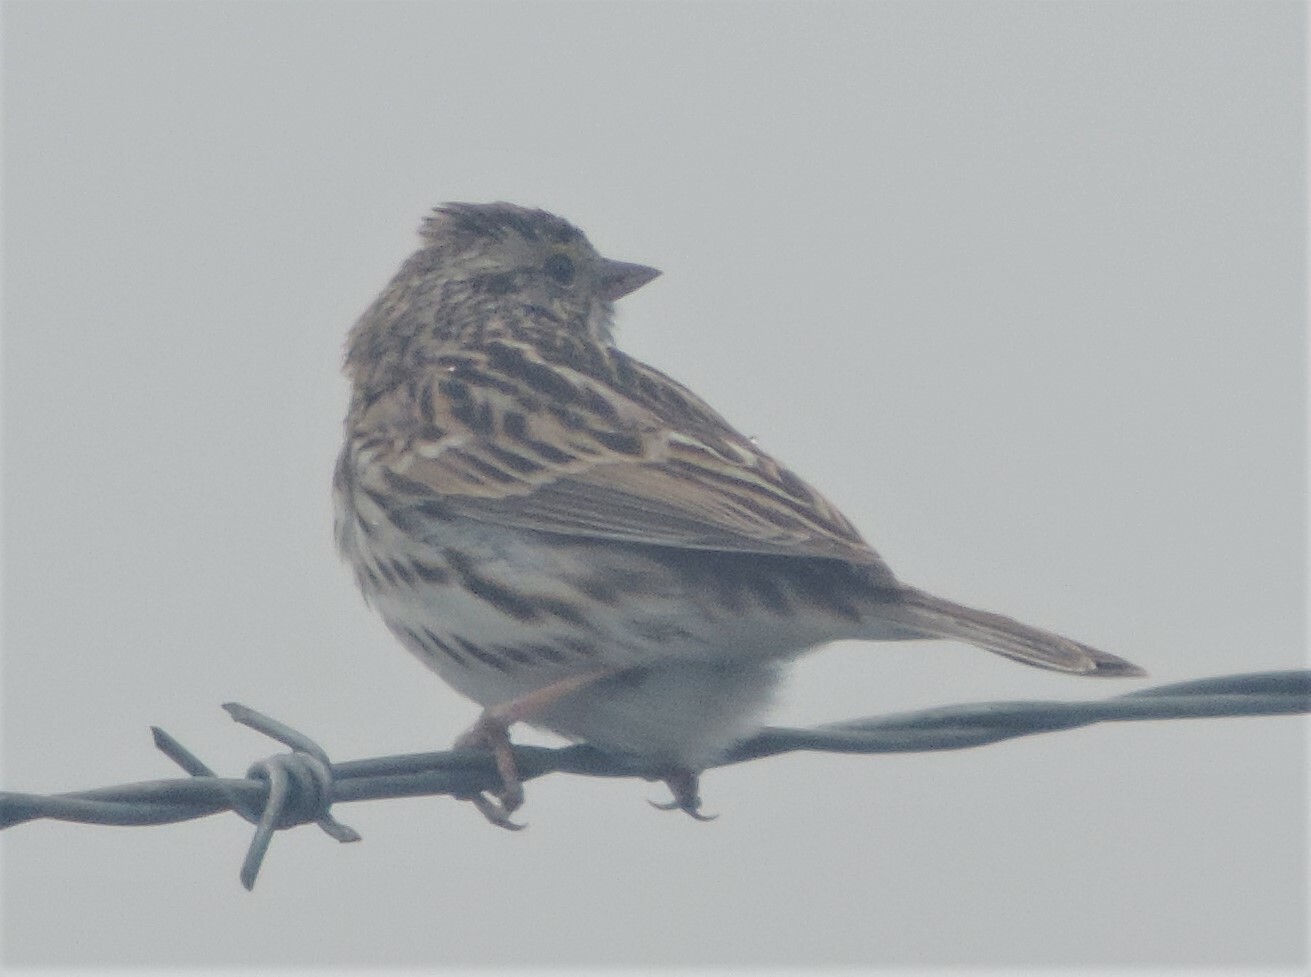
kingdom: Animalia
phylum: Chordata
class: Aves
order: Passeriformes
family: Passerellidae
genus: Passerculus
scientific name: Passerculus sandwichensis
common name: Savannah sparrow
